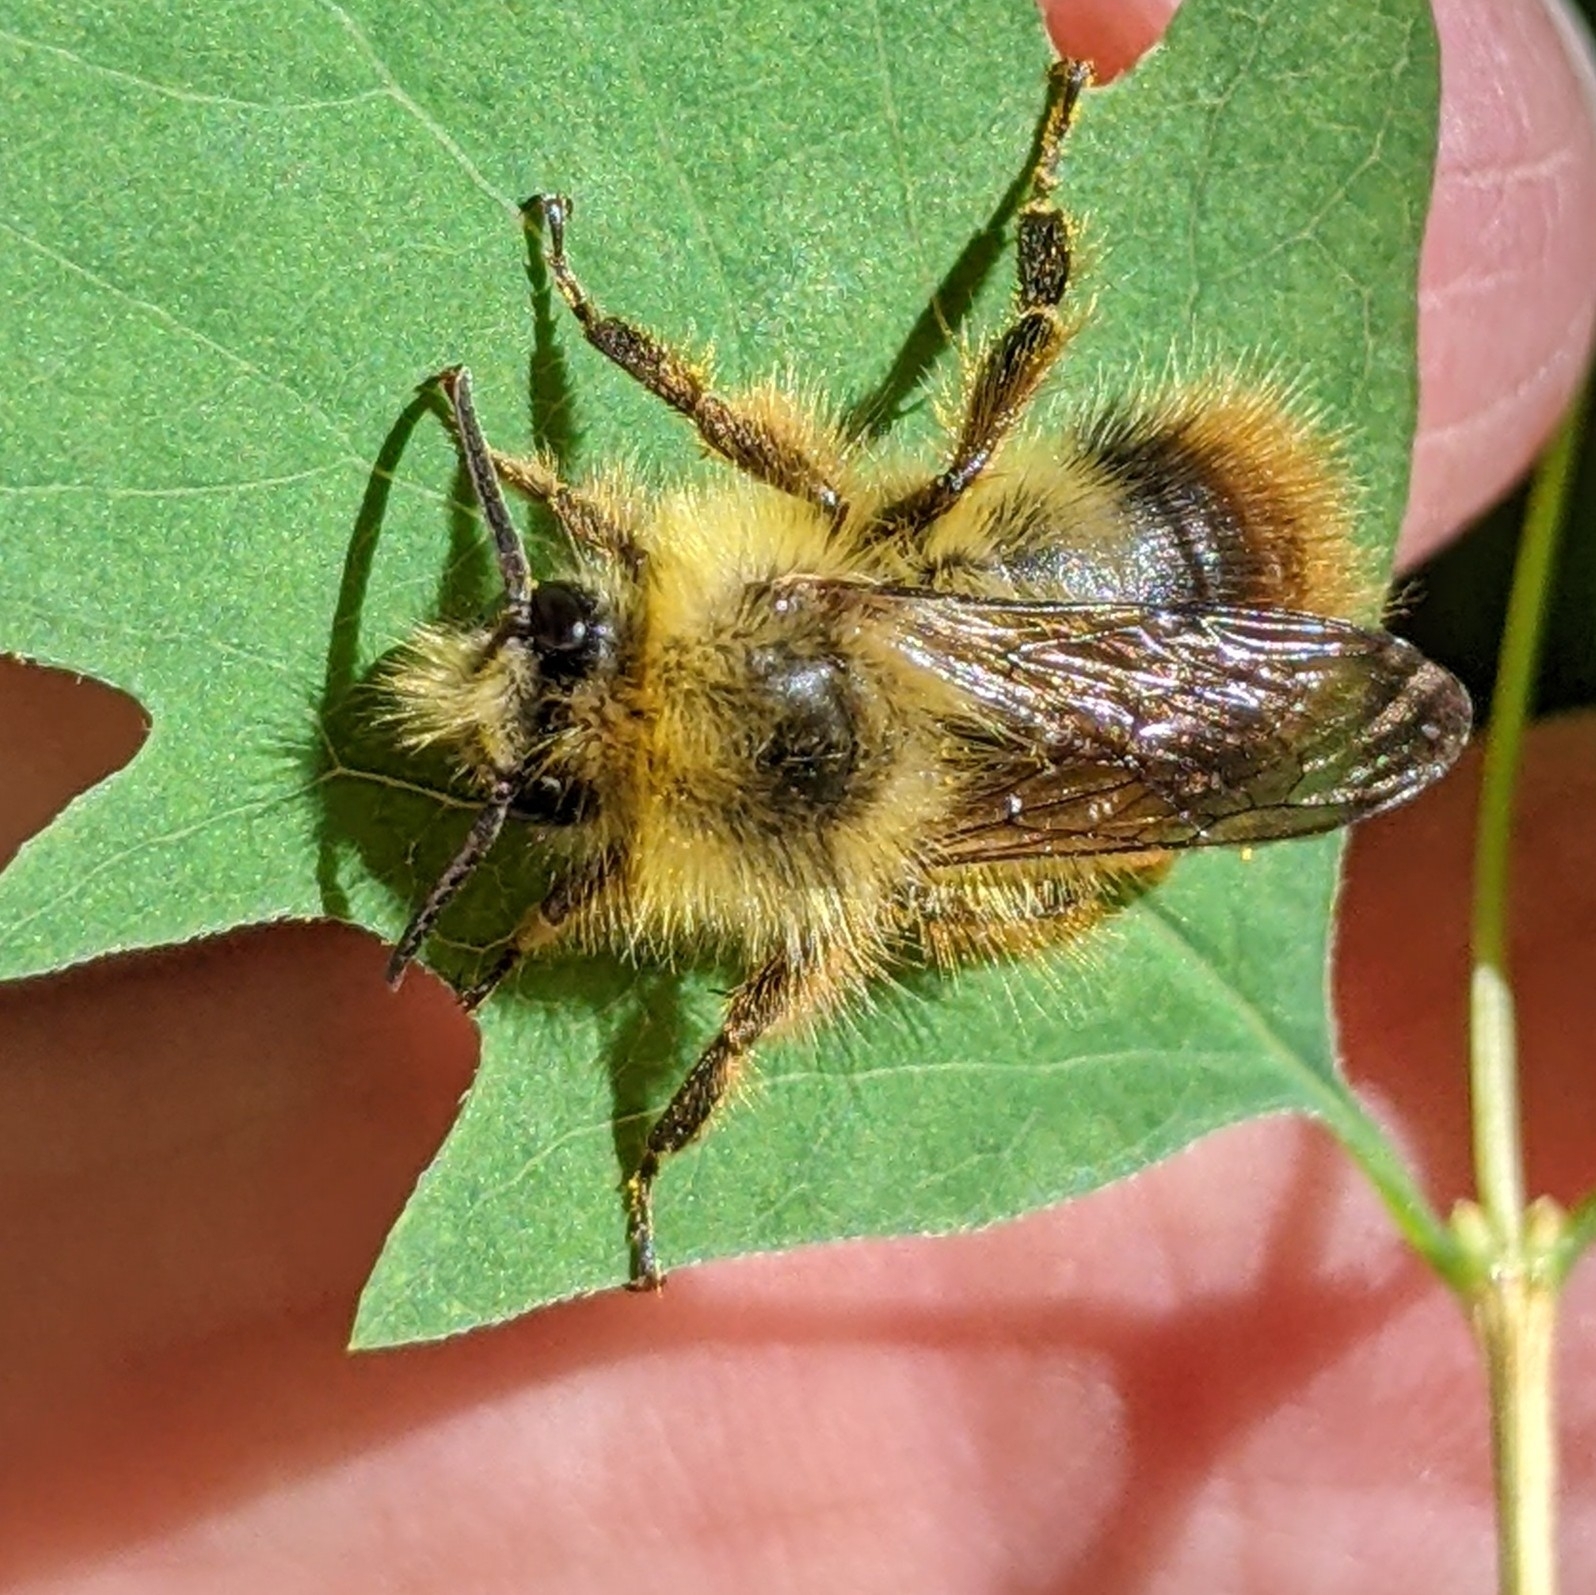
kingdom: Animalia
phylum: Arthropoda
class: Insecta
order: Hymenoptera
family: Apidae
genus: Bombus
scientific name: Bombus mixtus
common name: Fuzzy-horned bumble bee
